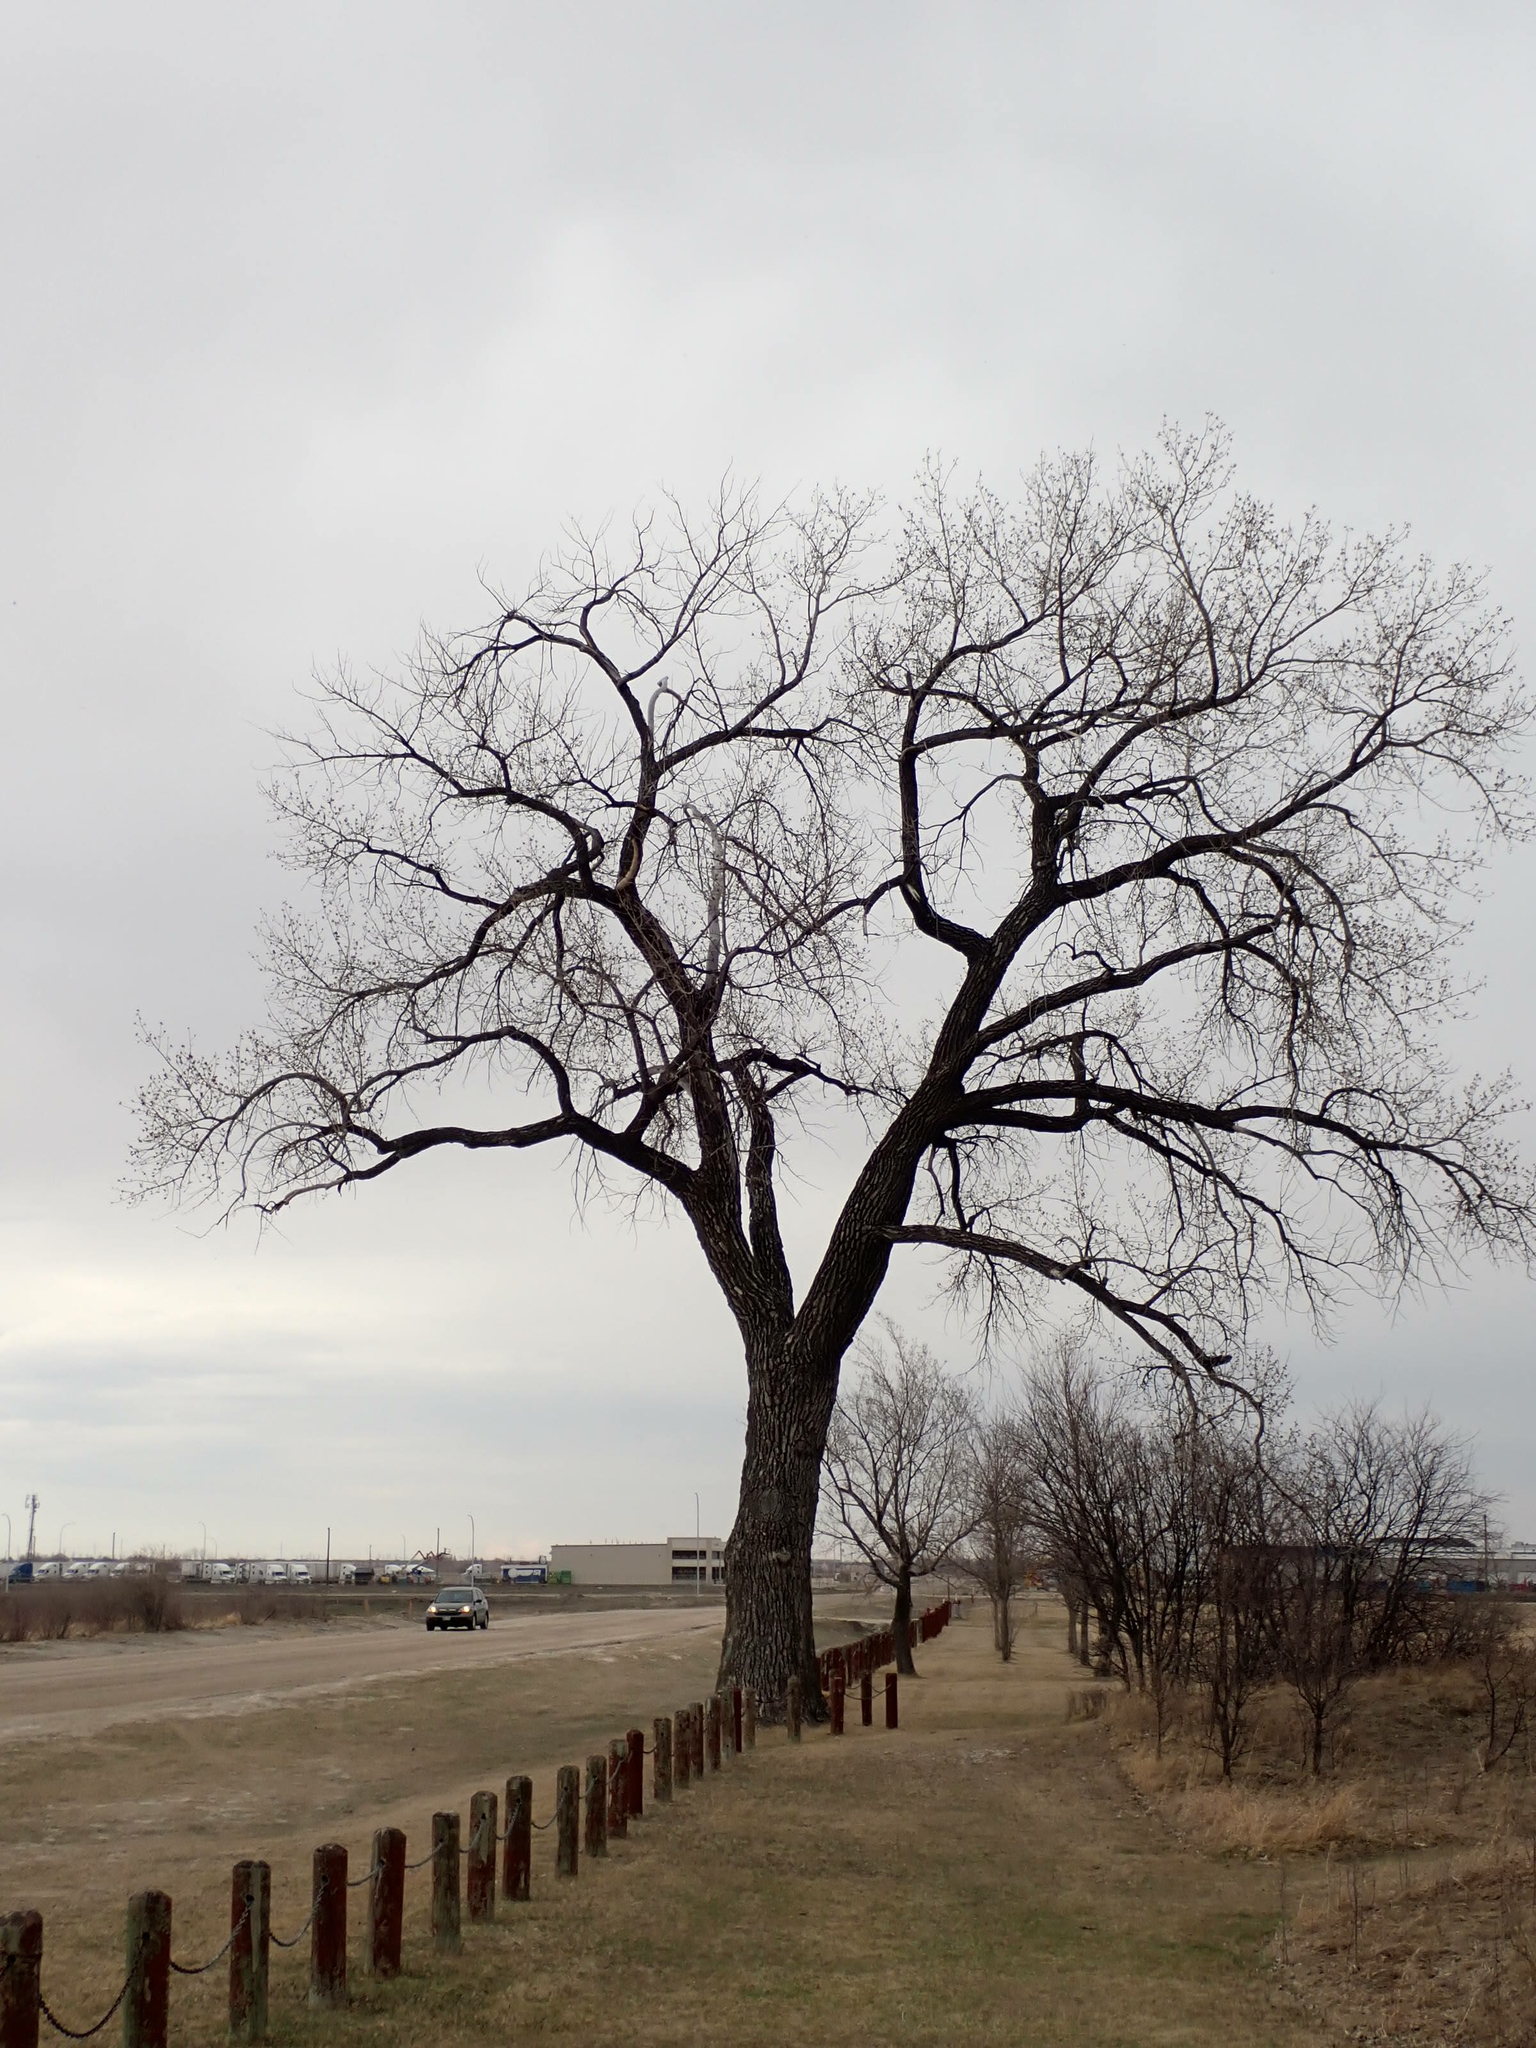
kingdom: Plantae
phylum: Tracheophyta
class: Magnoliopsida
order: Malpighiales
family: Salicaceae
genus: Populus
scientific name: Populus deltoides
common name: Eastern cottonwood
